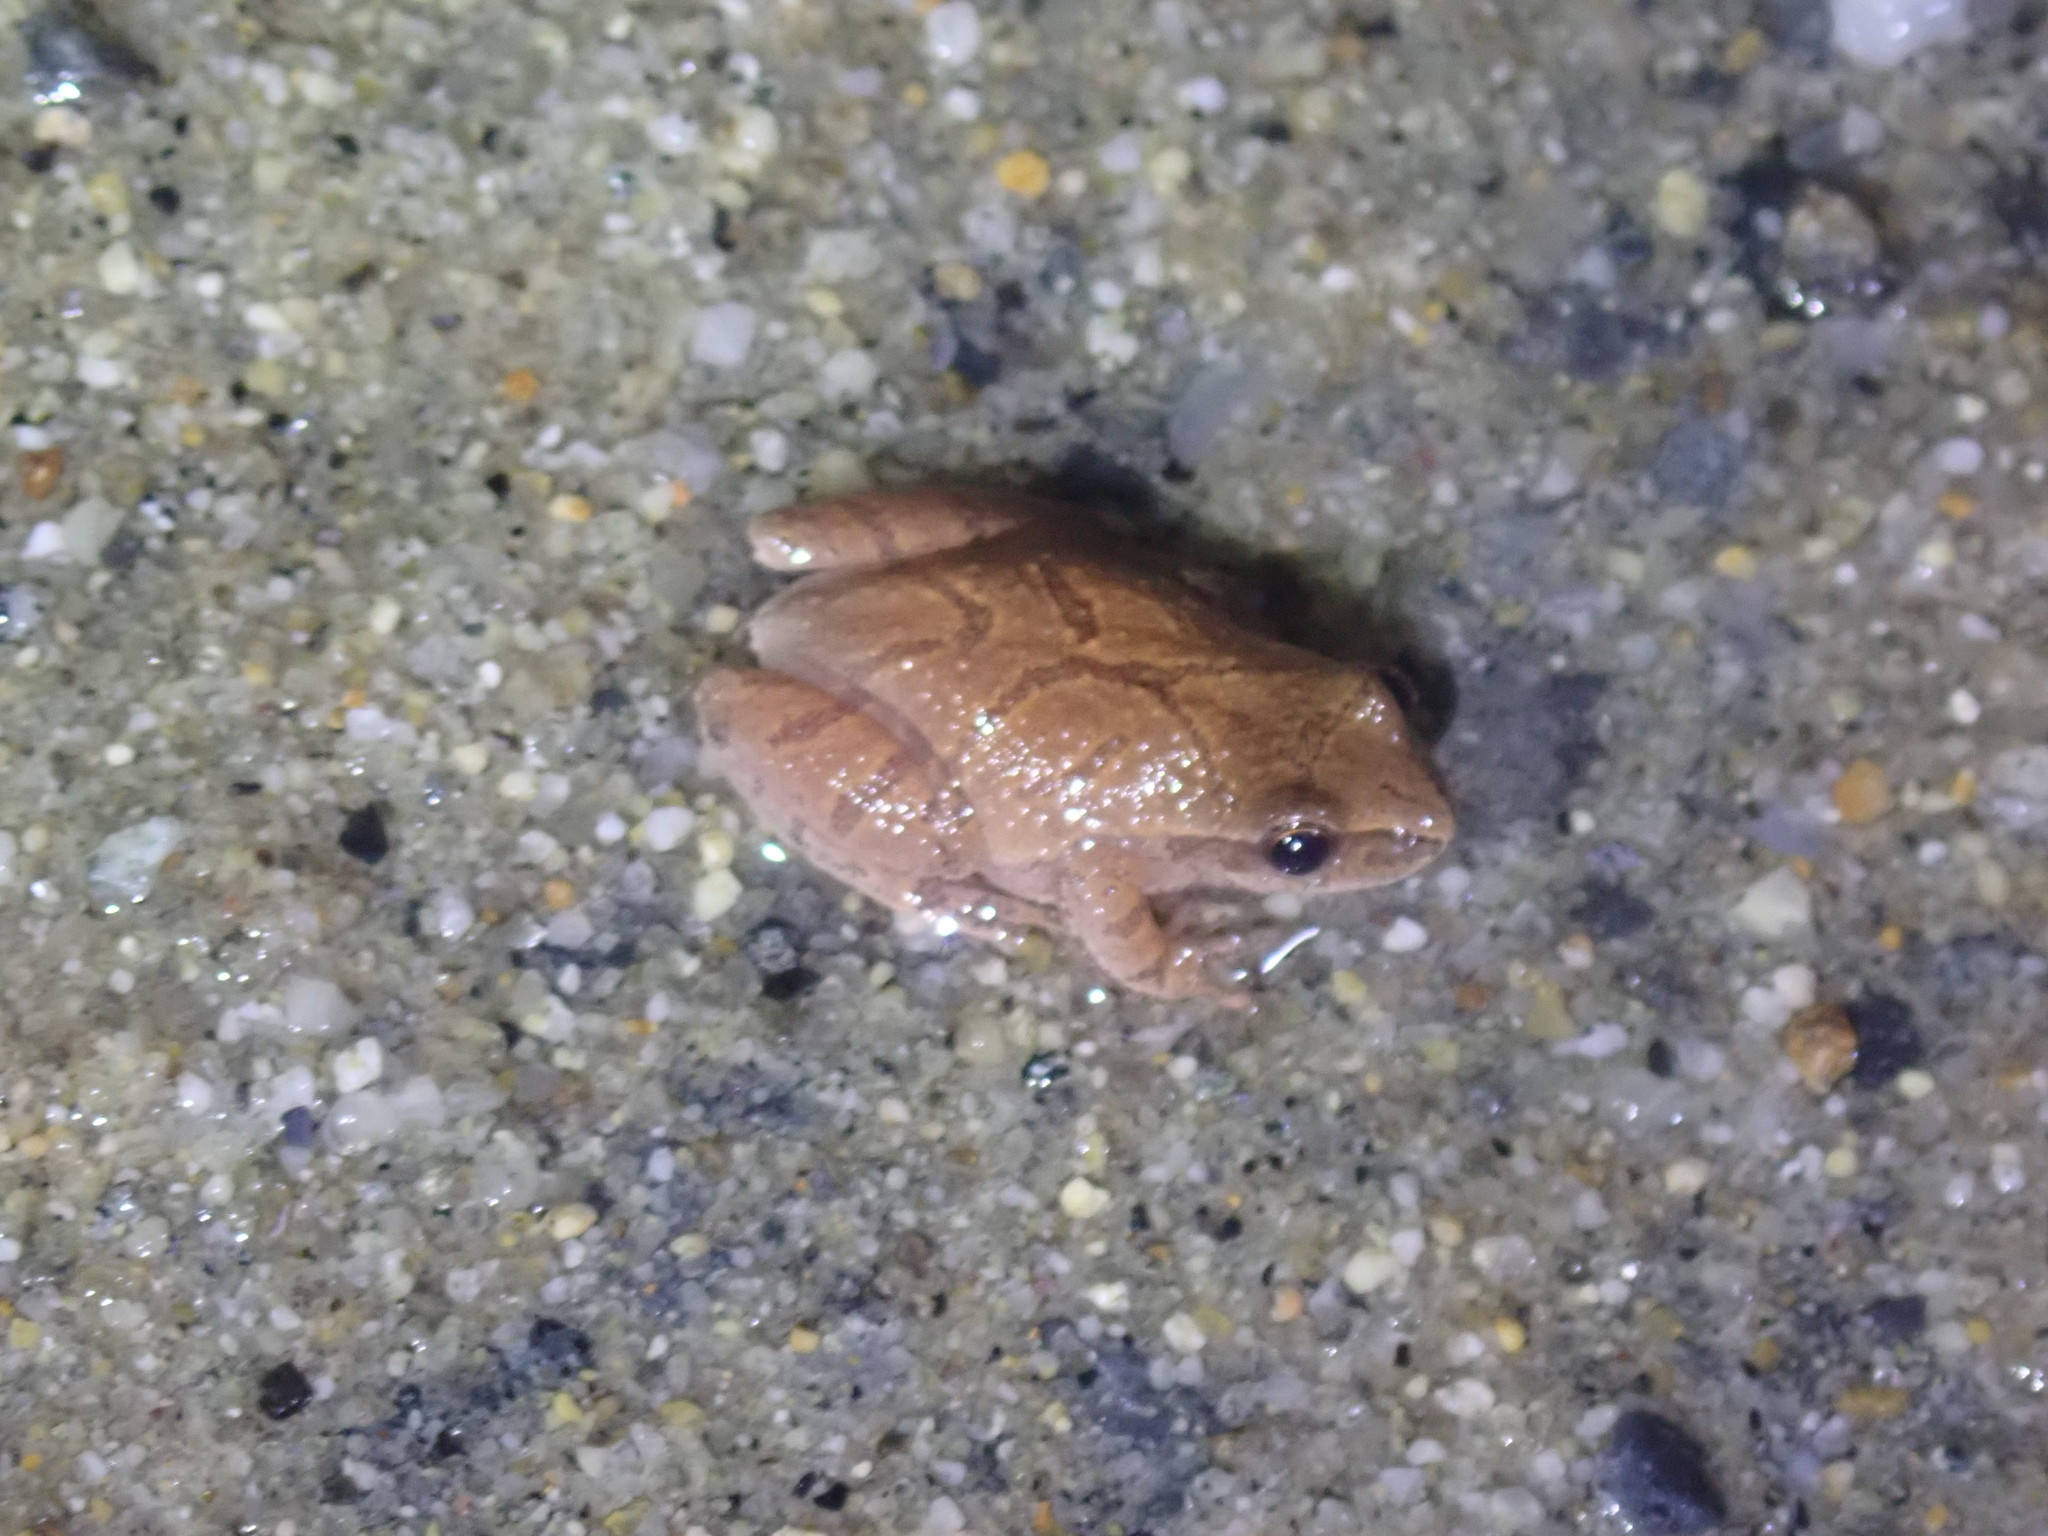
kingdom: Animalia
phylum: Chordata
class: Amphibia
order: Anura
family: Hylidae
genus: Pseudacris
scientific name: Pseudacris crucifer
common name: Spring peeper
